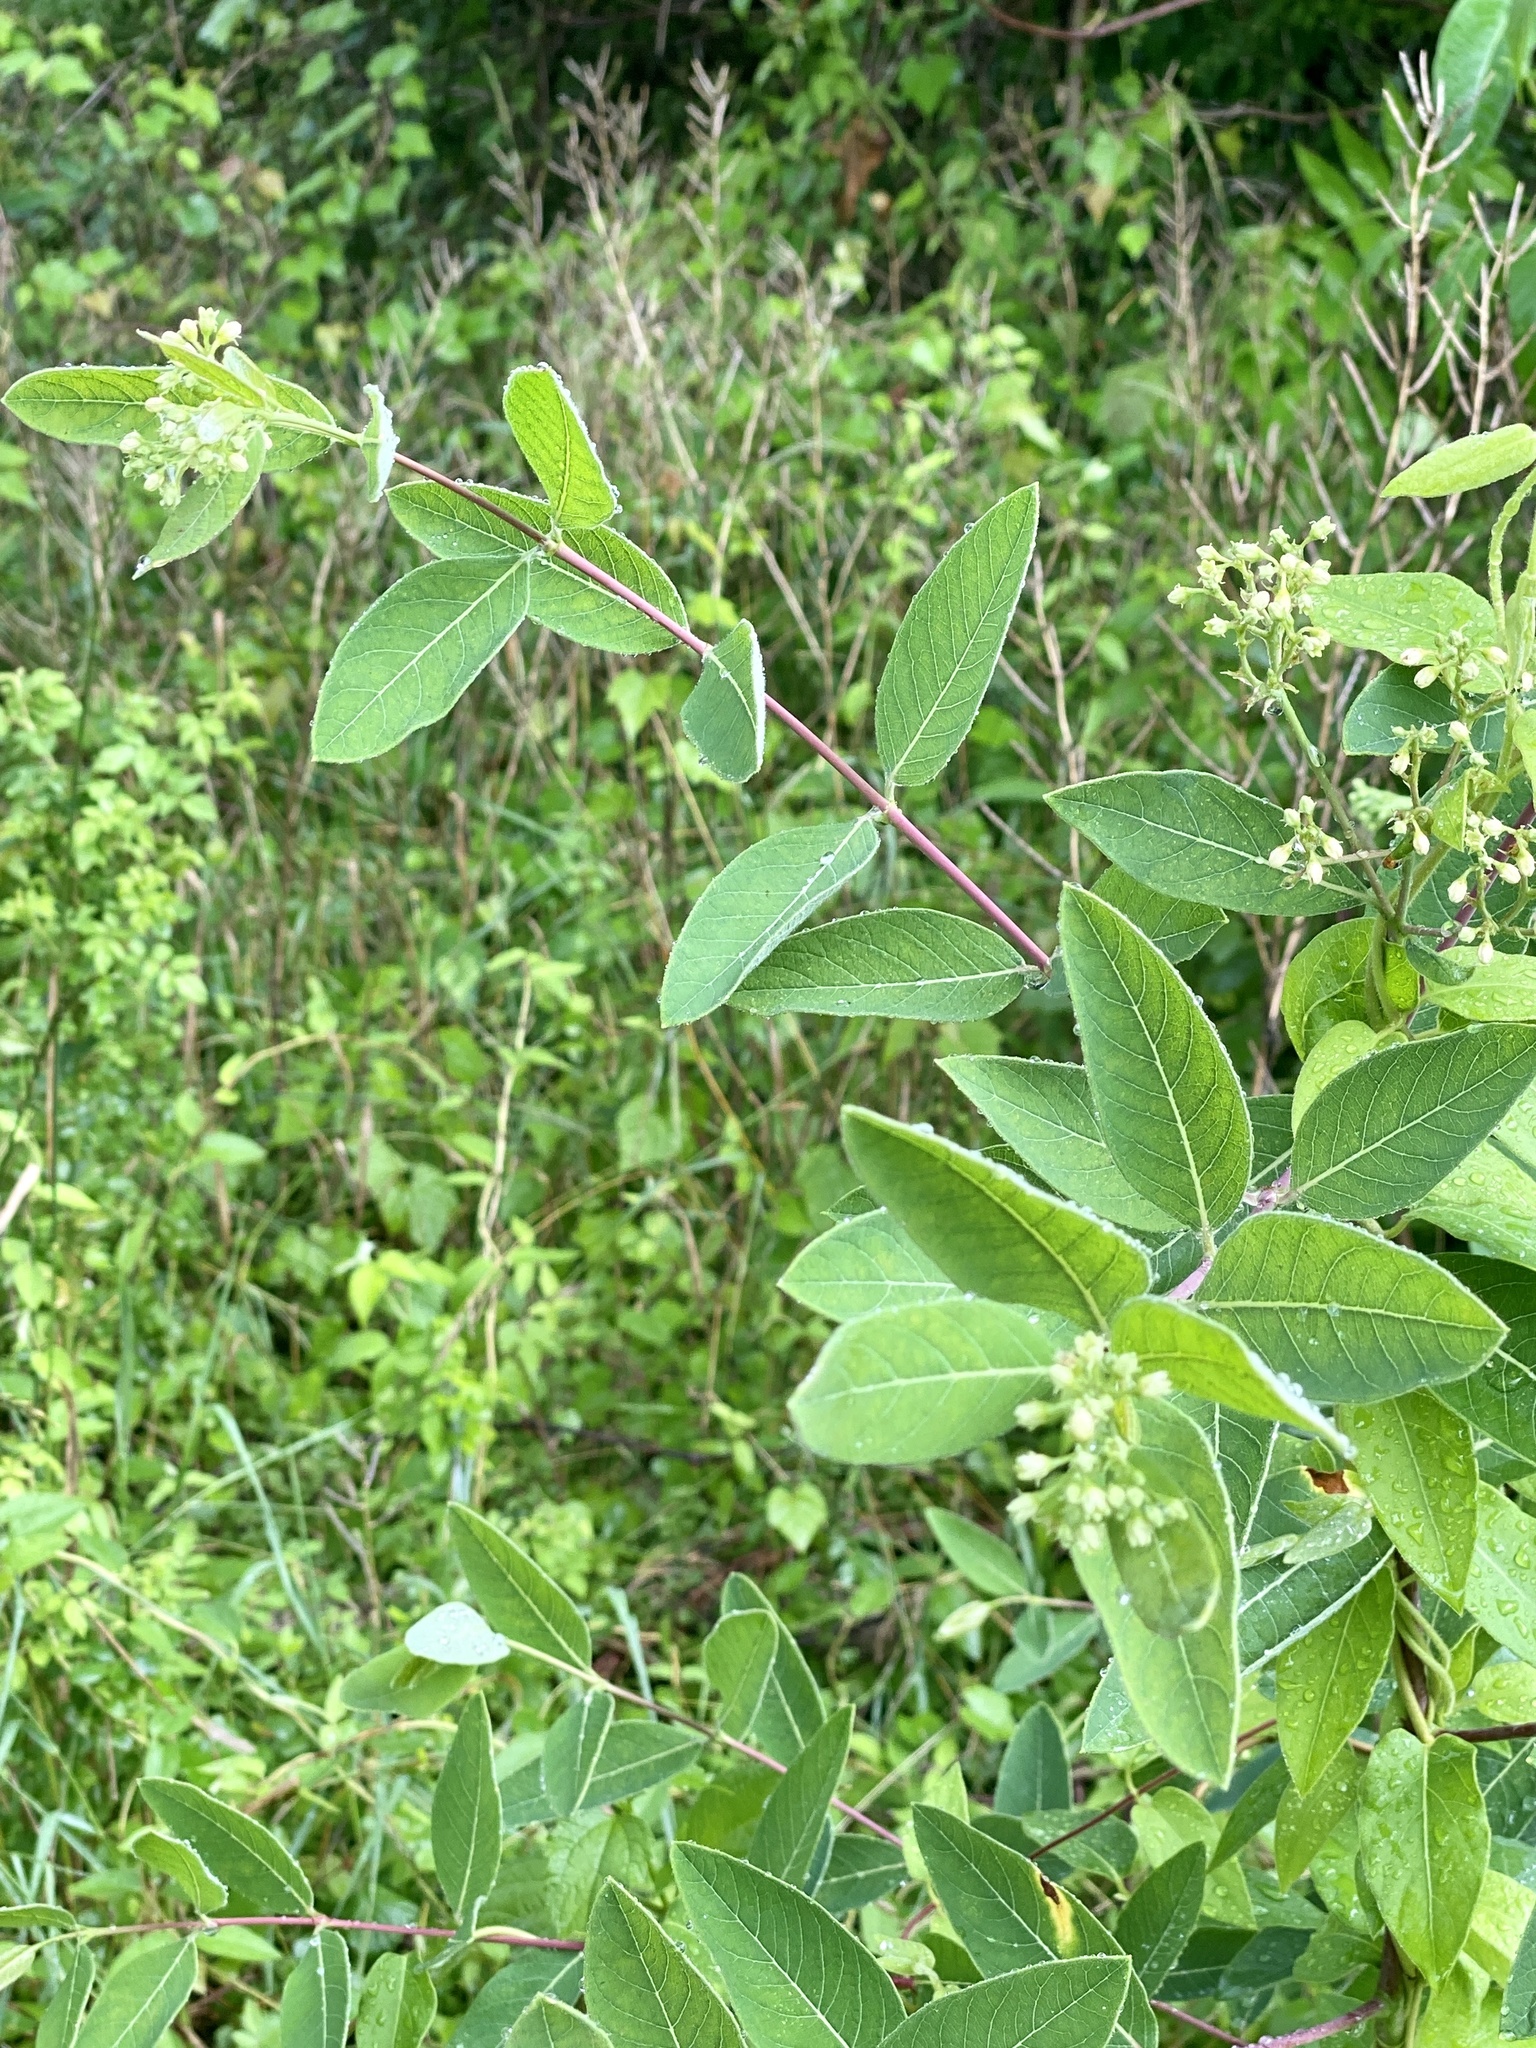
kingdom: Plantae
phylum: Tracheophyta
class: Magnoliopsida
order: Gentianales
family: Apocynaceae
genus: Apocynum
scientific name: Apocynum cannabinum
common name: Hemp dogbane
